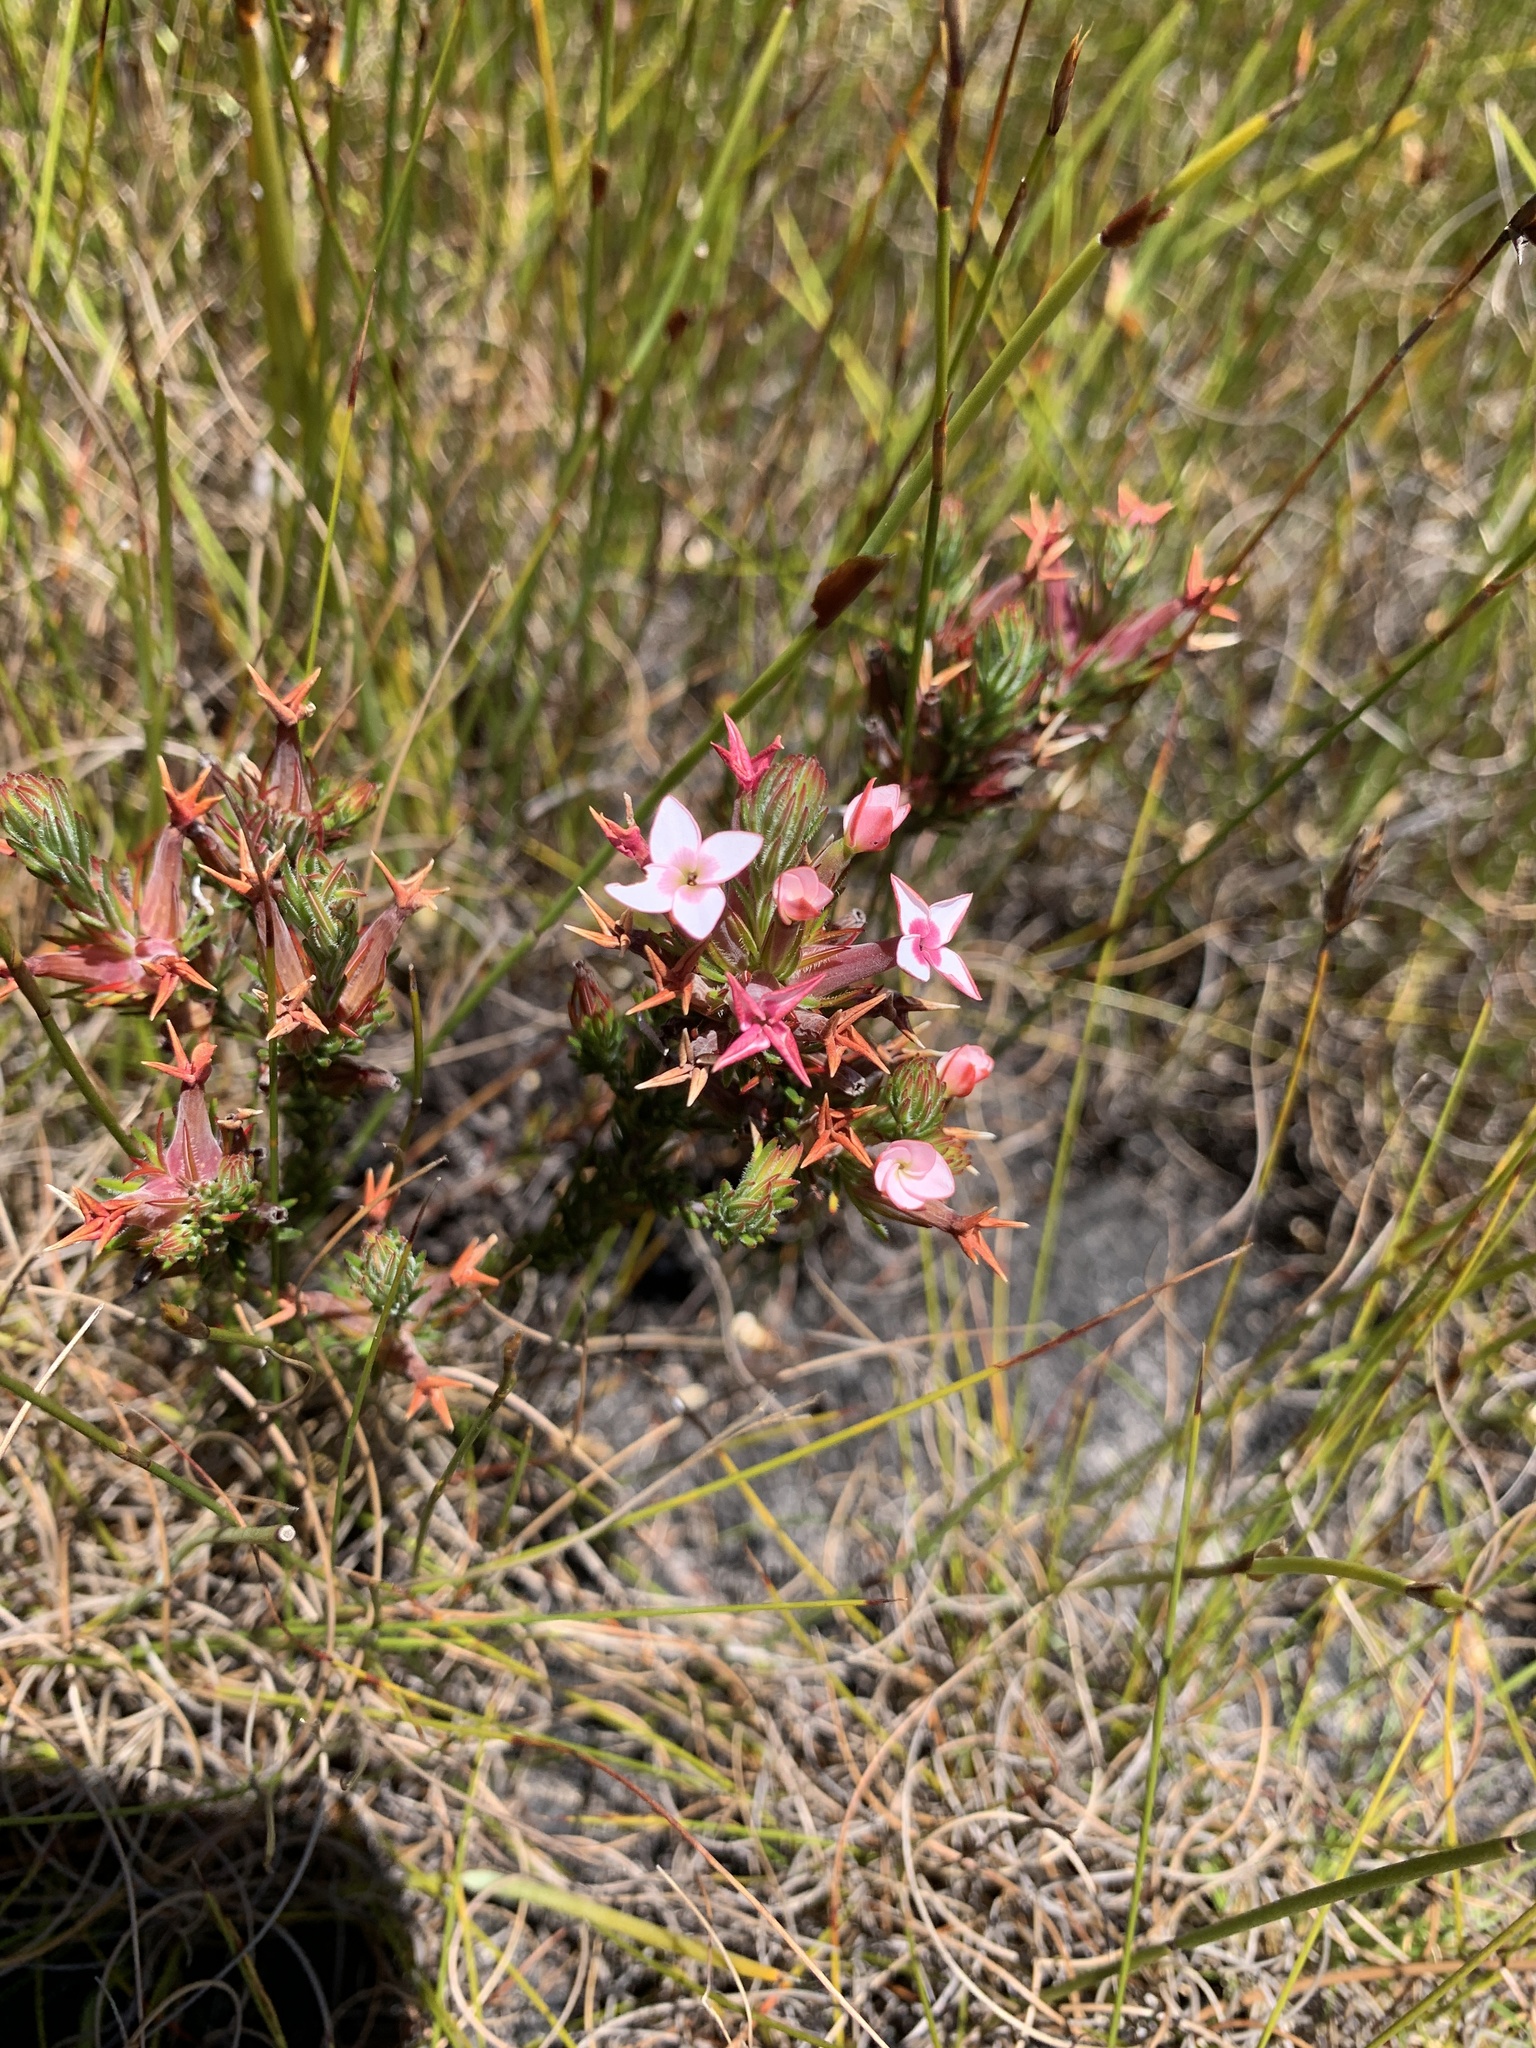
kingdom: Plantae
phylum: Tracheophyta
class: Magnoliopsida
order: Ericales
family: Ericaceae
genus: Erica
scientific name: Erica fastigiata
